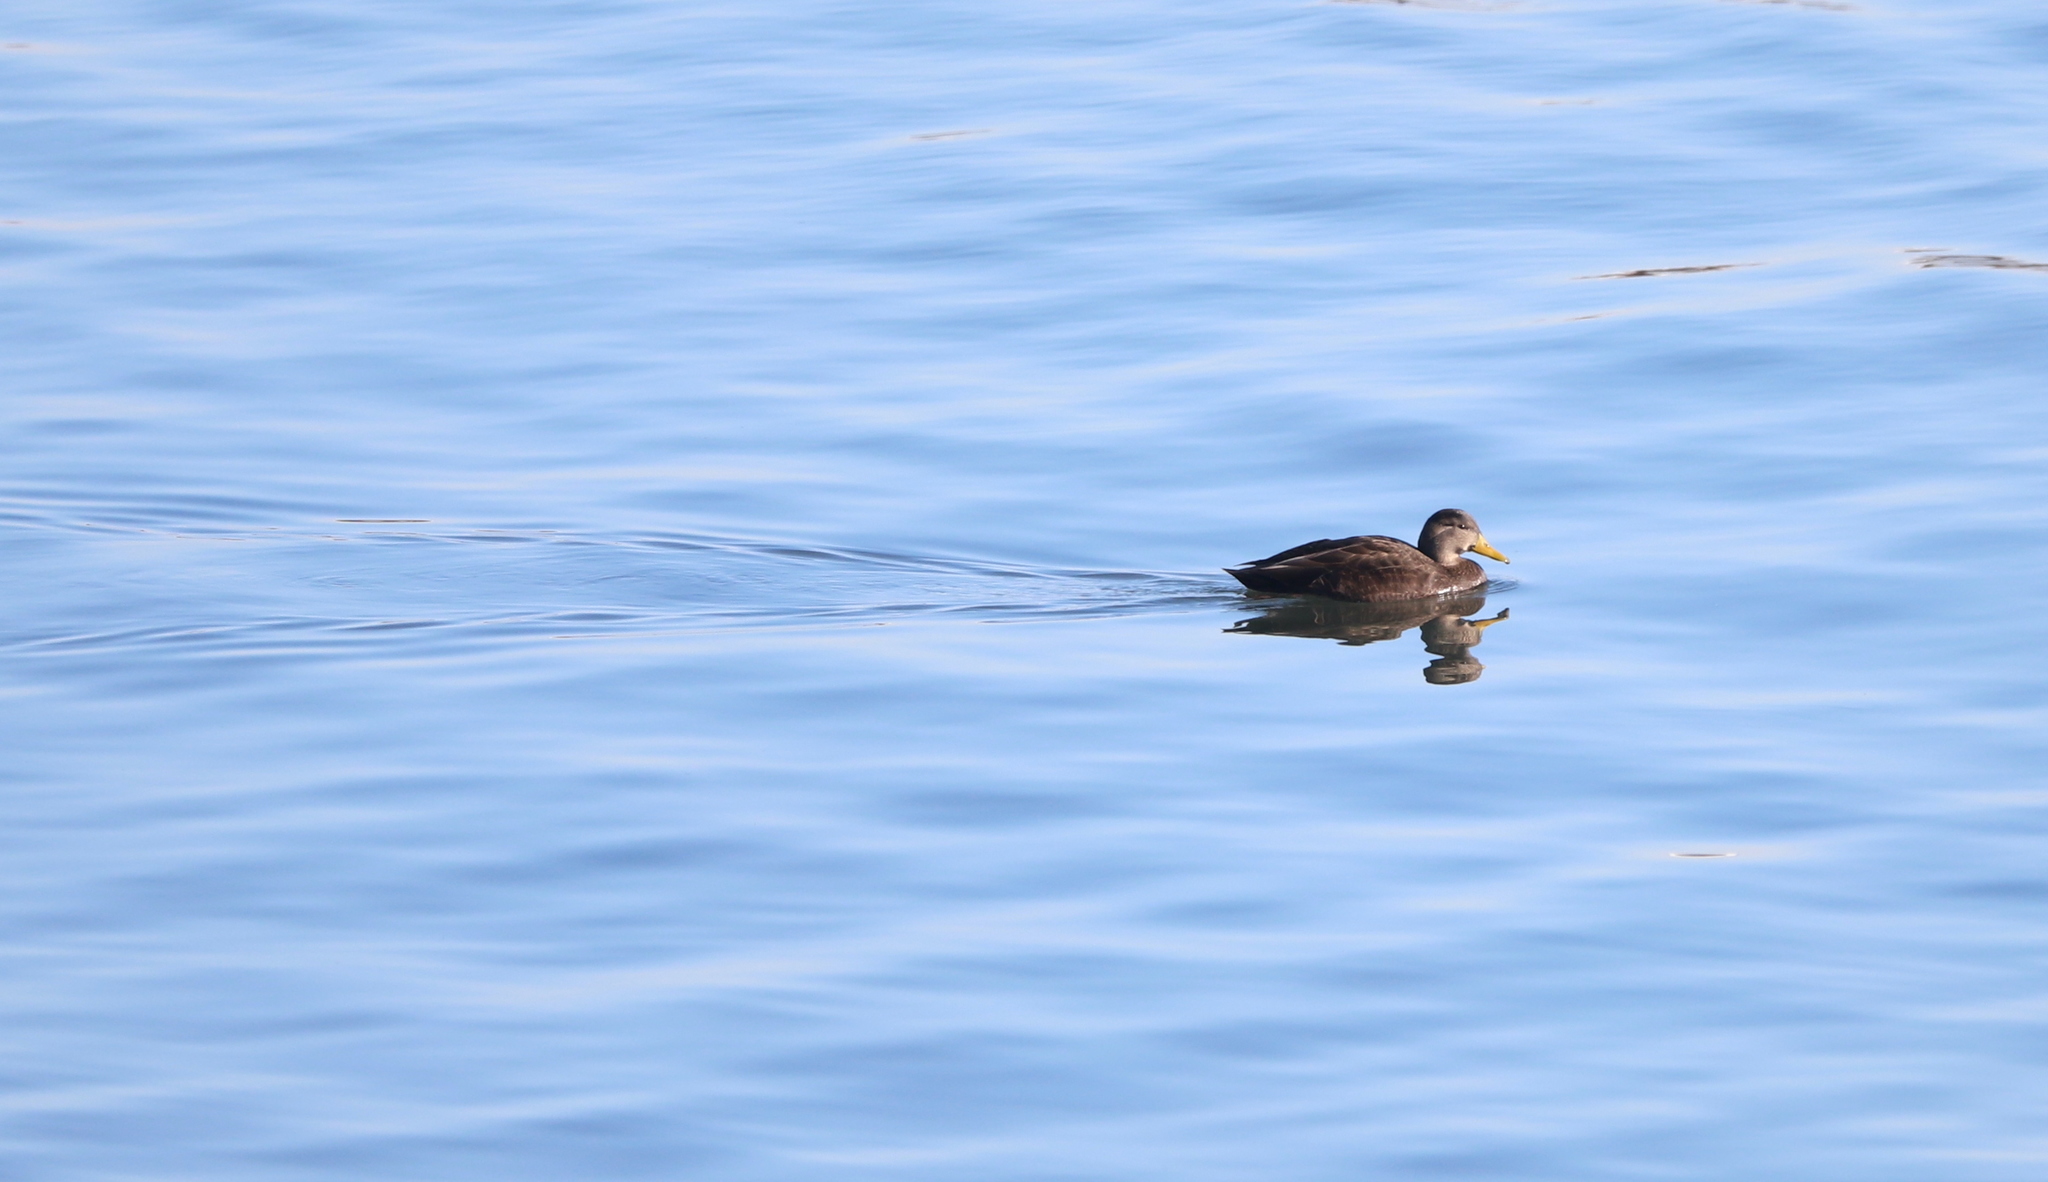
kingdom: Animalia
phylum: Chordata
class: Aves
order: Anseriformes
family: Anatidae
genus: Anas
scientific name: Anas rubripes
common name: American black duck
